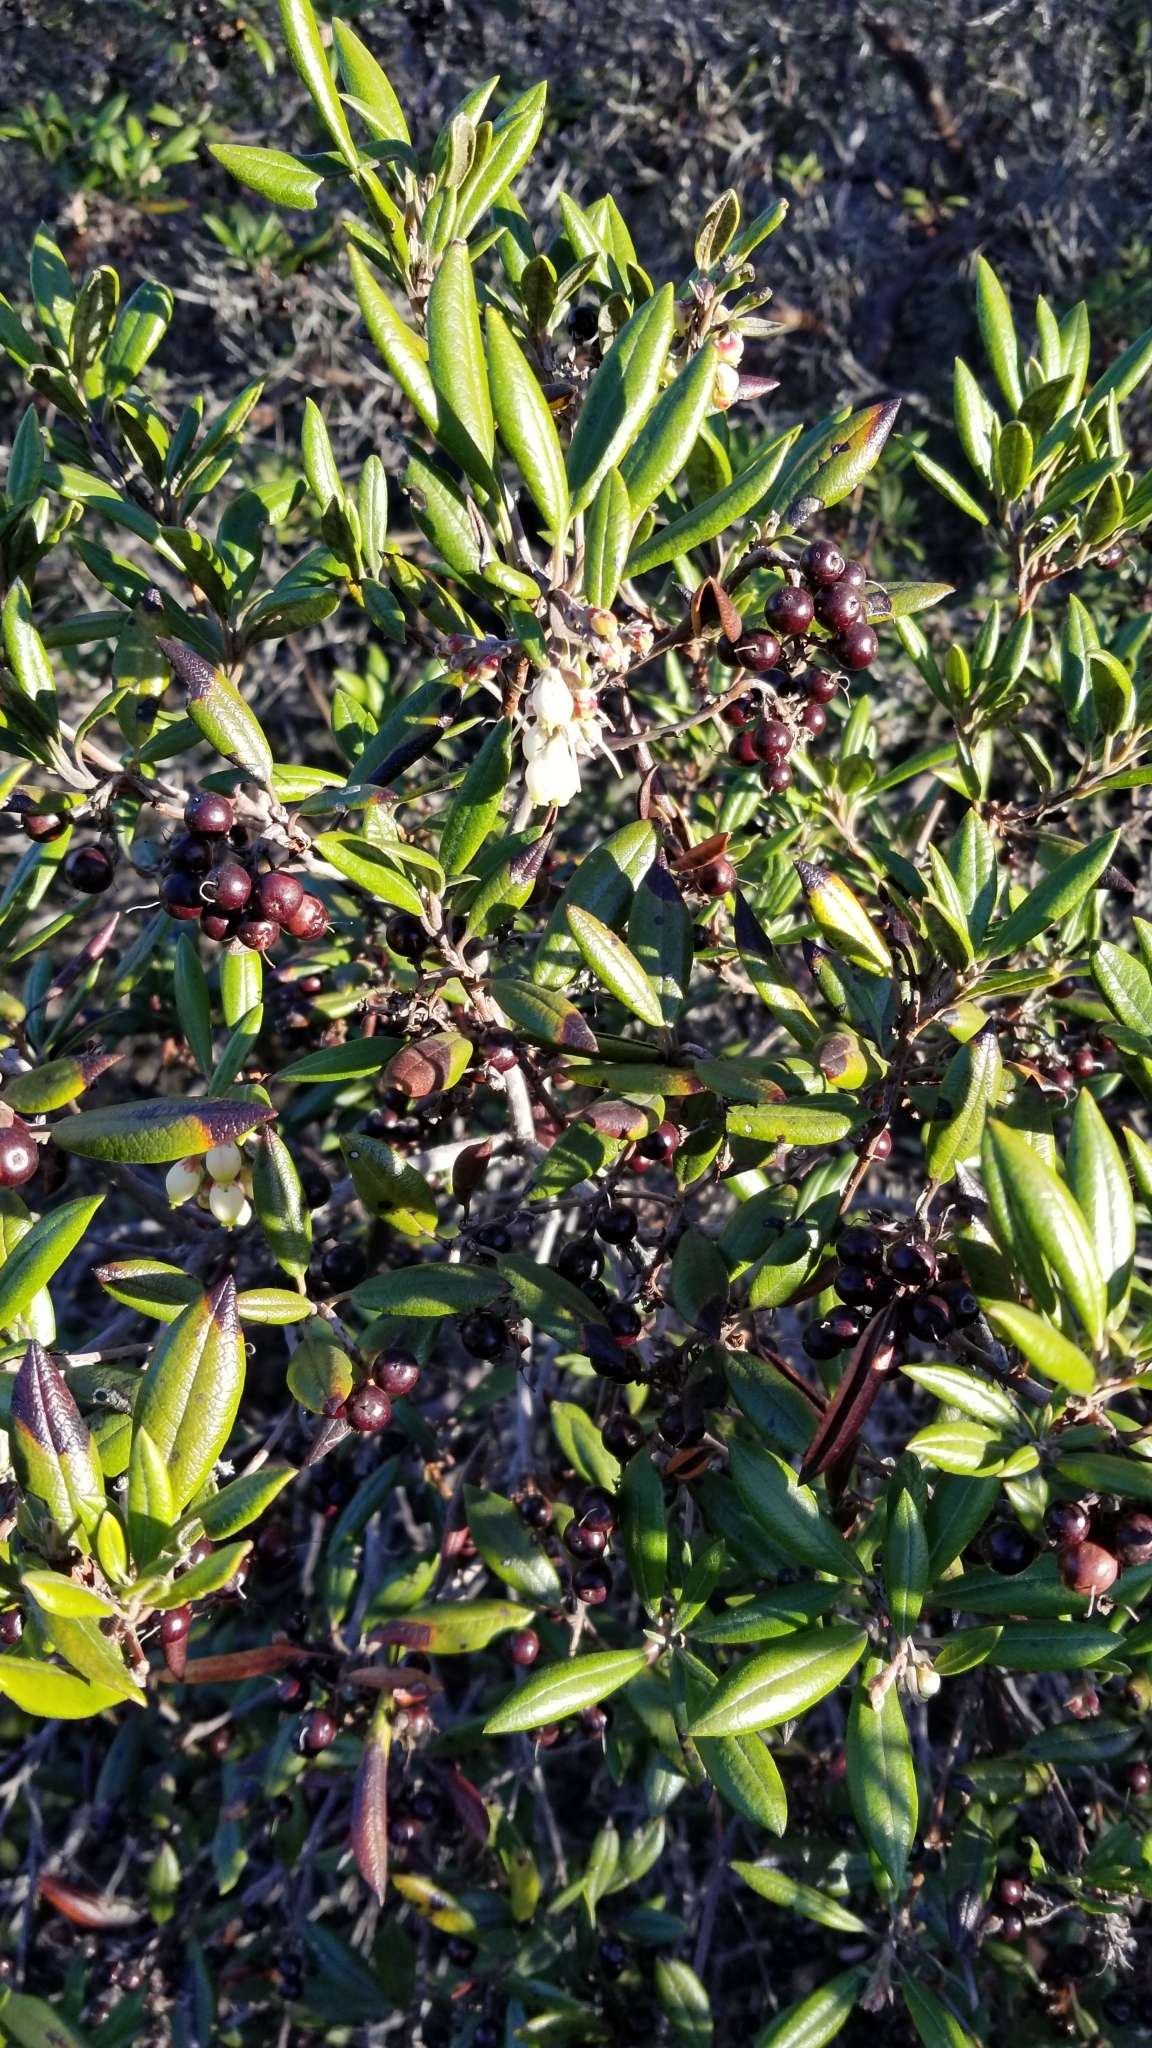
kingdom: Plantae
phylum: Tracheophyta
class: Magnoliopsida
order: Ericales
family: Ericaceae
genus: Arctostaphylos
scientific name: Arctostaphylos bicolor
